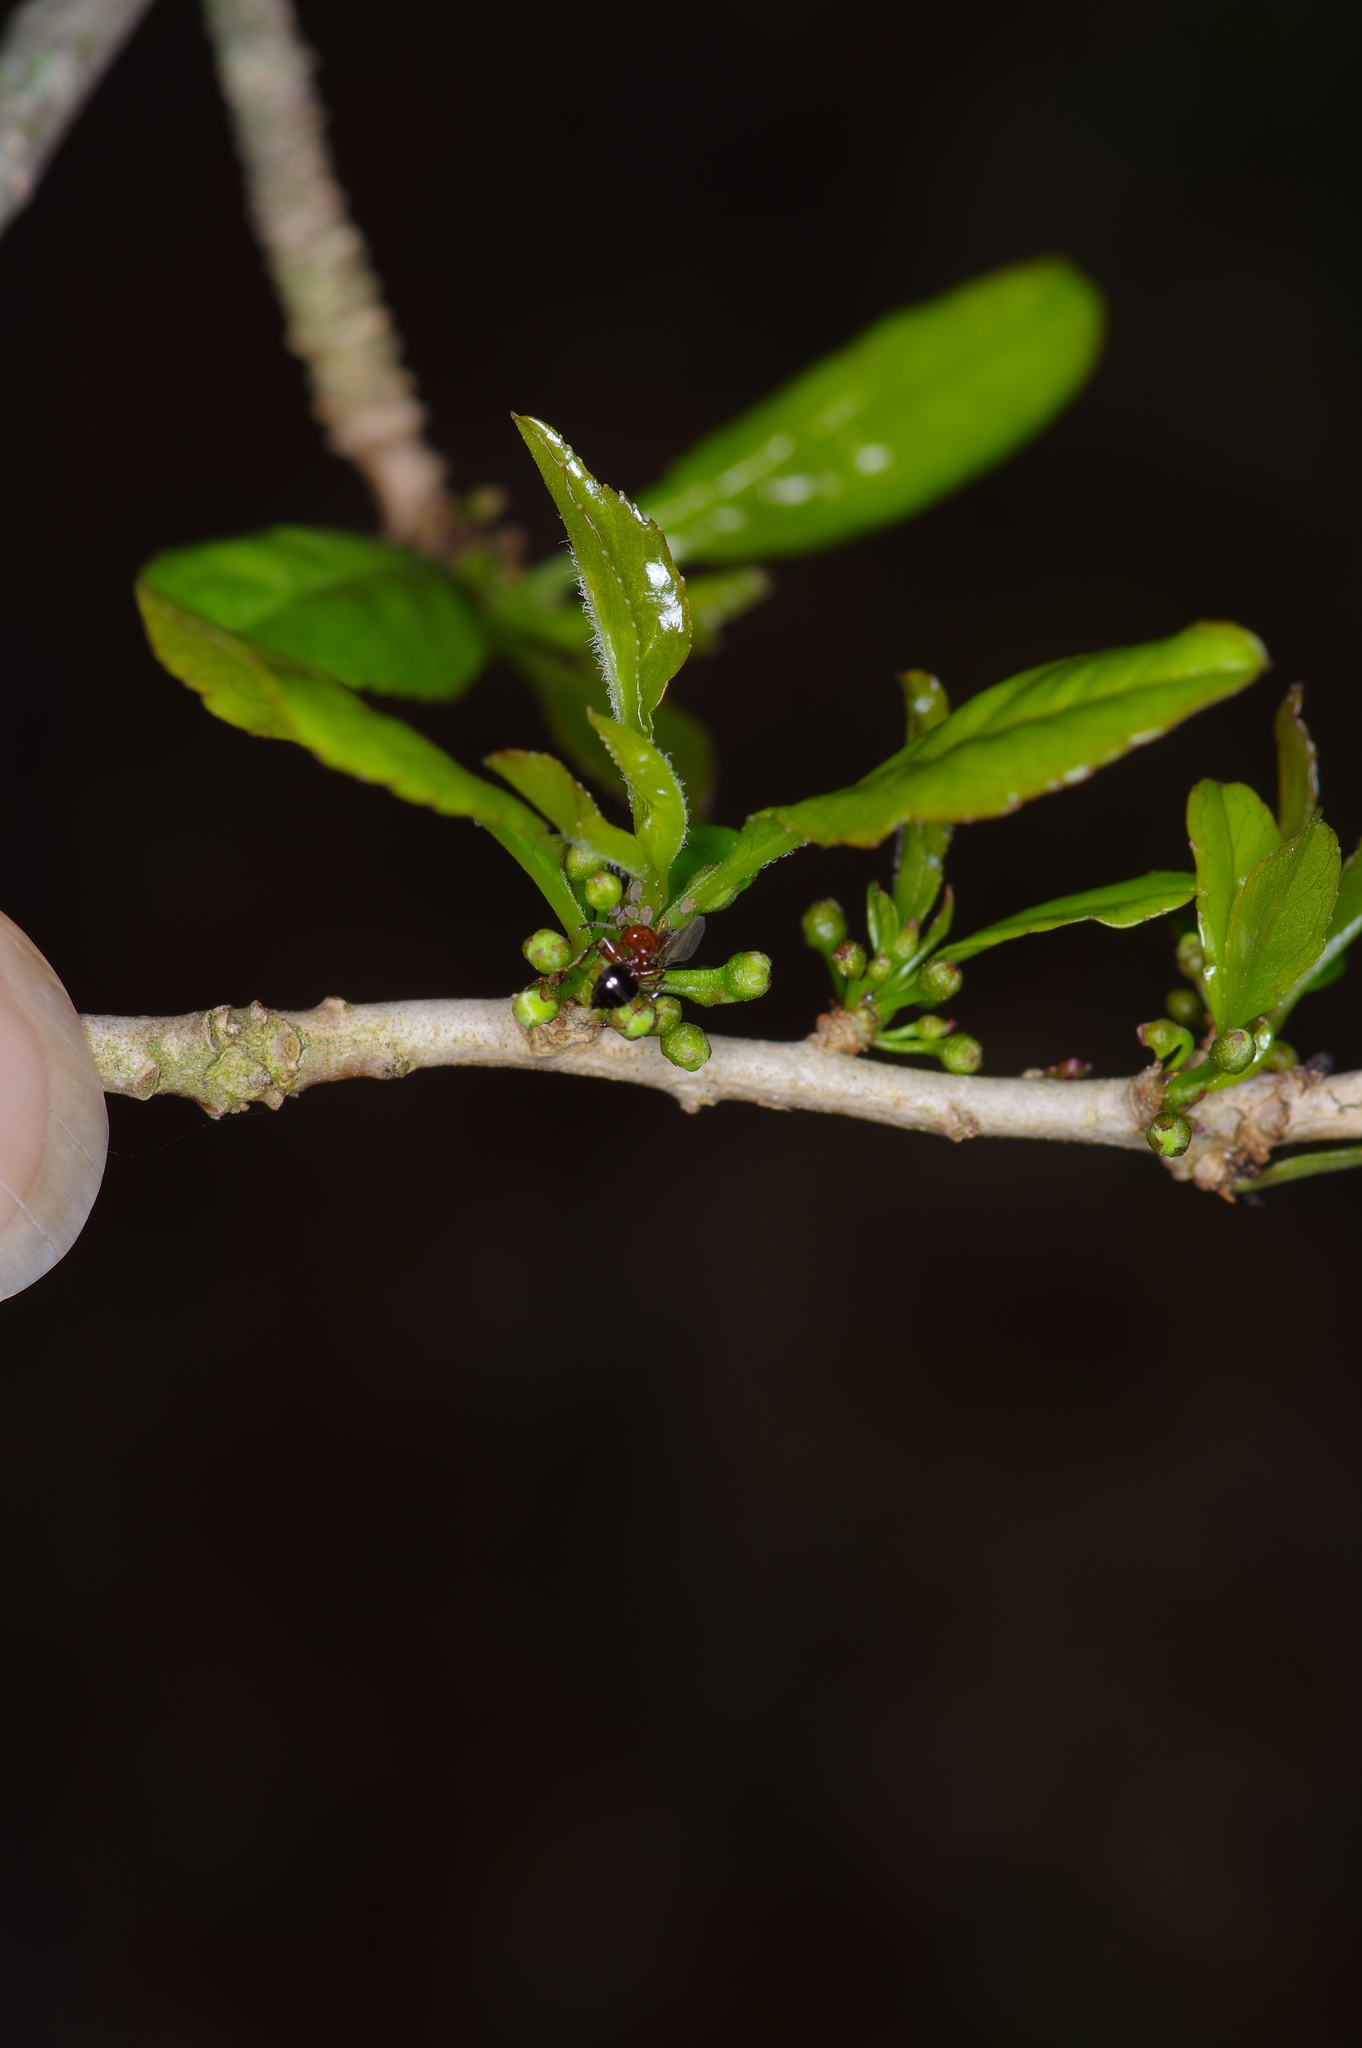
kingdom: Plantae
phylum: Tracheophyta
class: Magnoliopsida
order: Aquifoliales
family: Aquifoliaceae
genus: Ilex
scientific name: Ilex decidua
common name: Possum-haw
